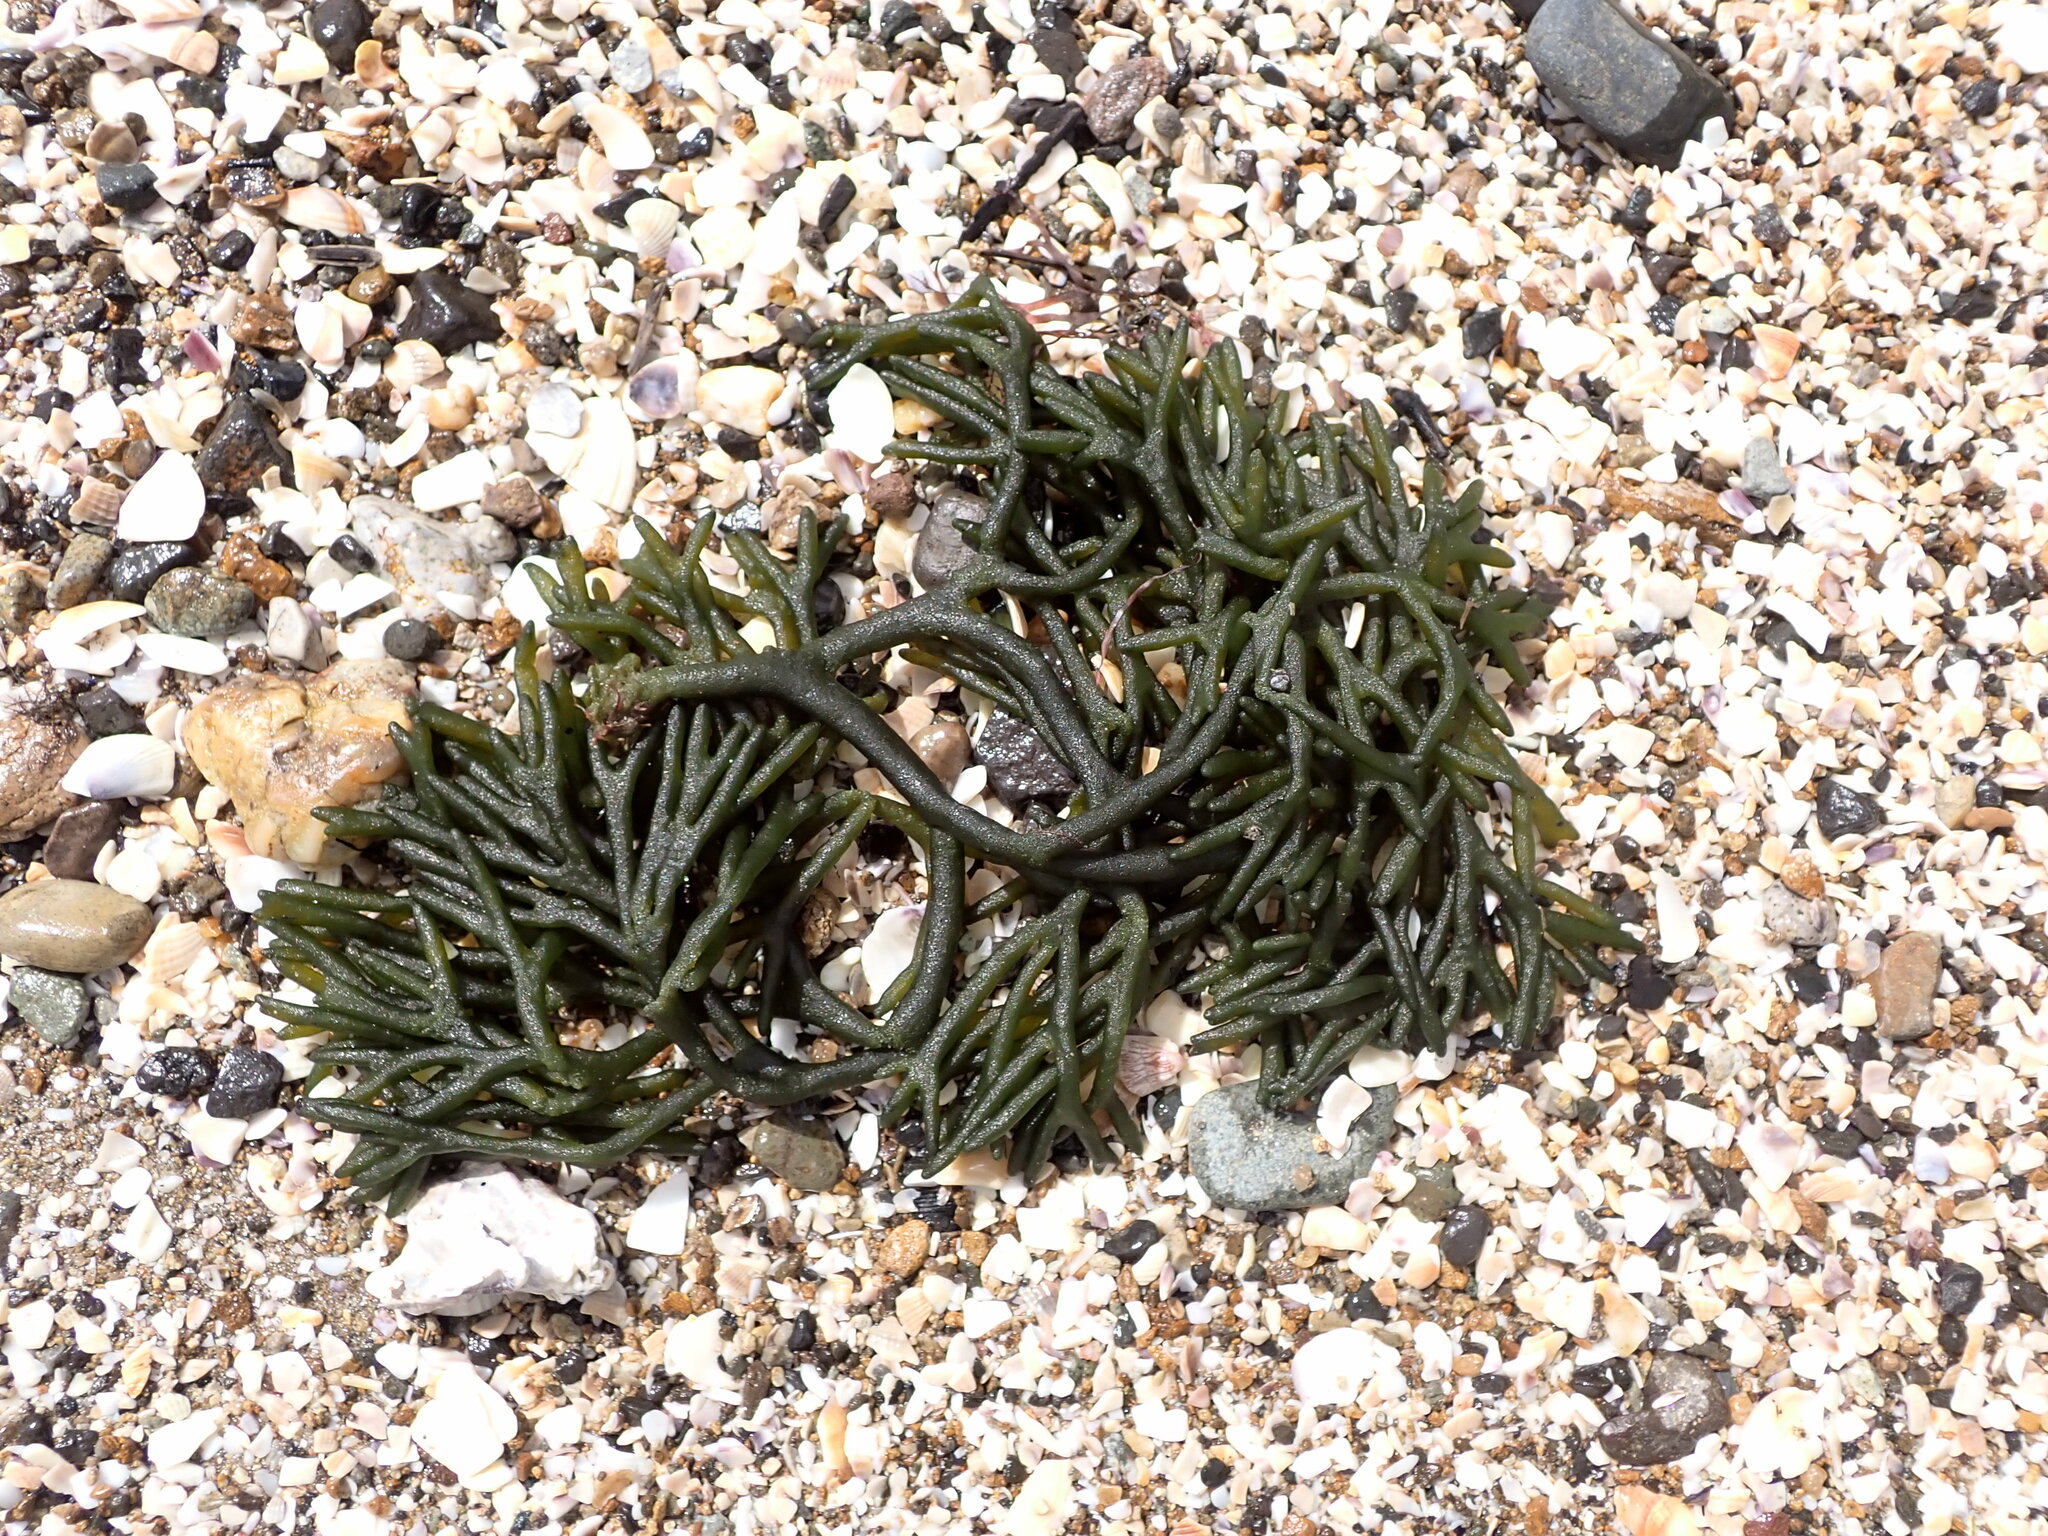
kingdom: Plantae
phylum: Chlorophyta
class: Ulvophyceae
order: Bryopsidales
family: Codiaceae
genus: Codium
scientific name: Codium fragile
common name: Dead man's fingers
